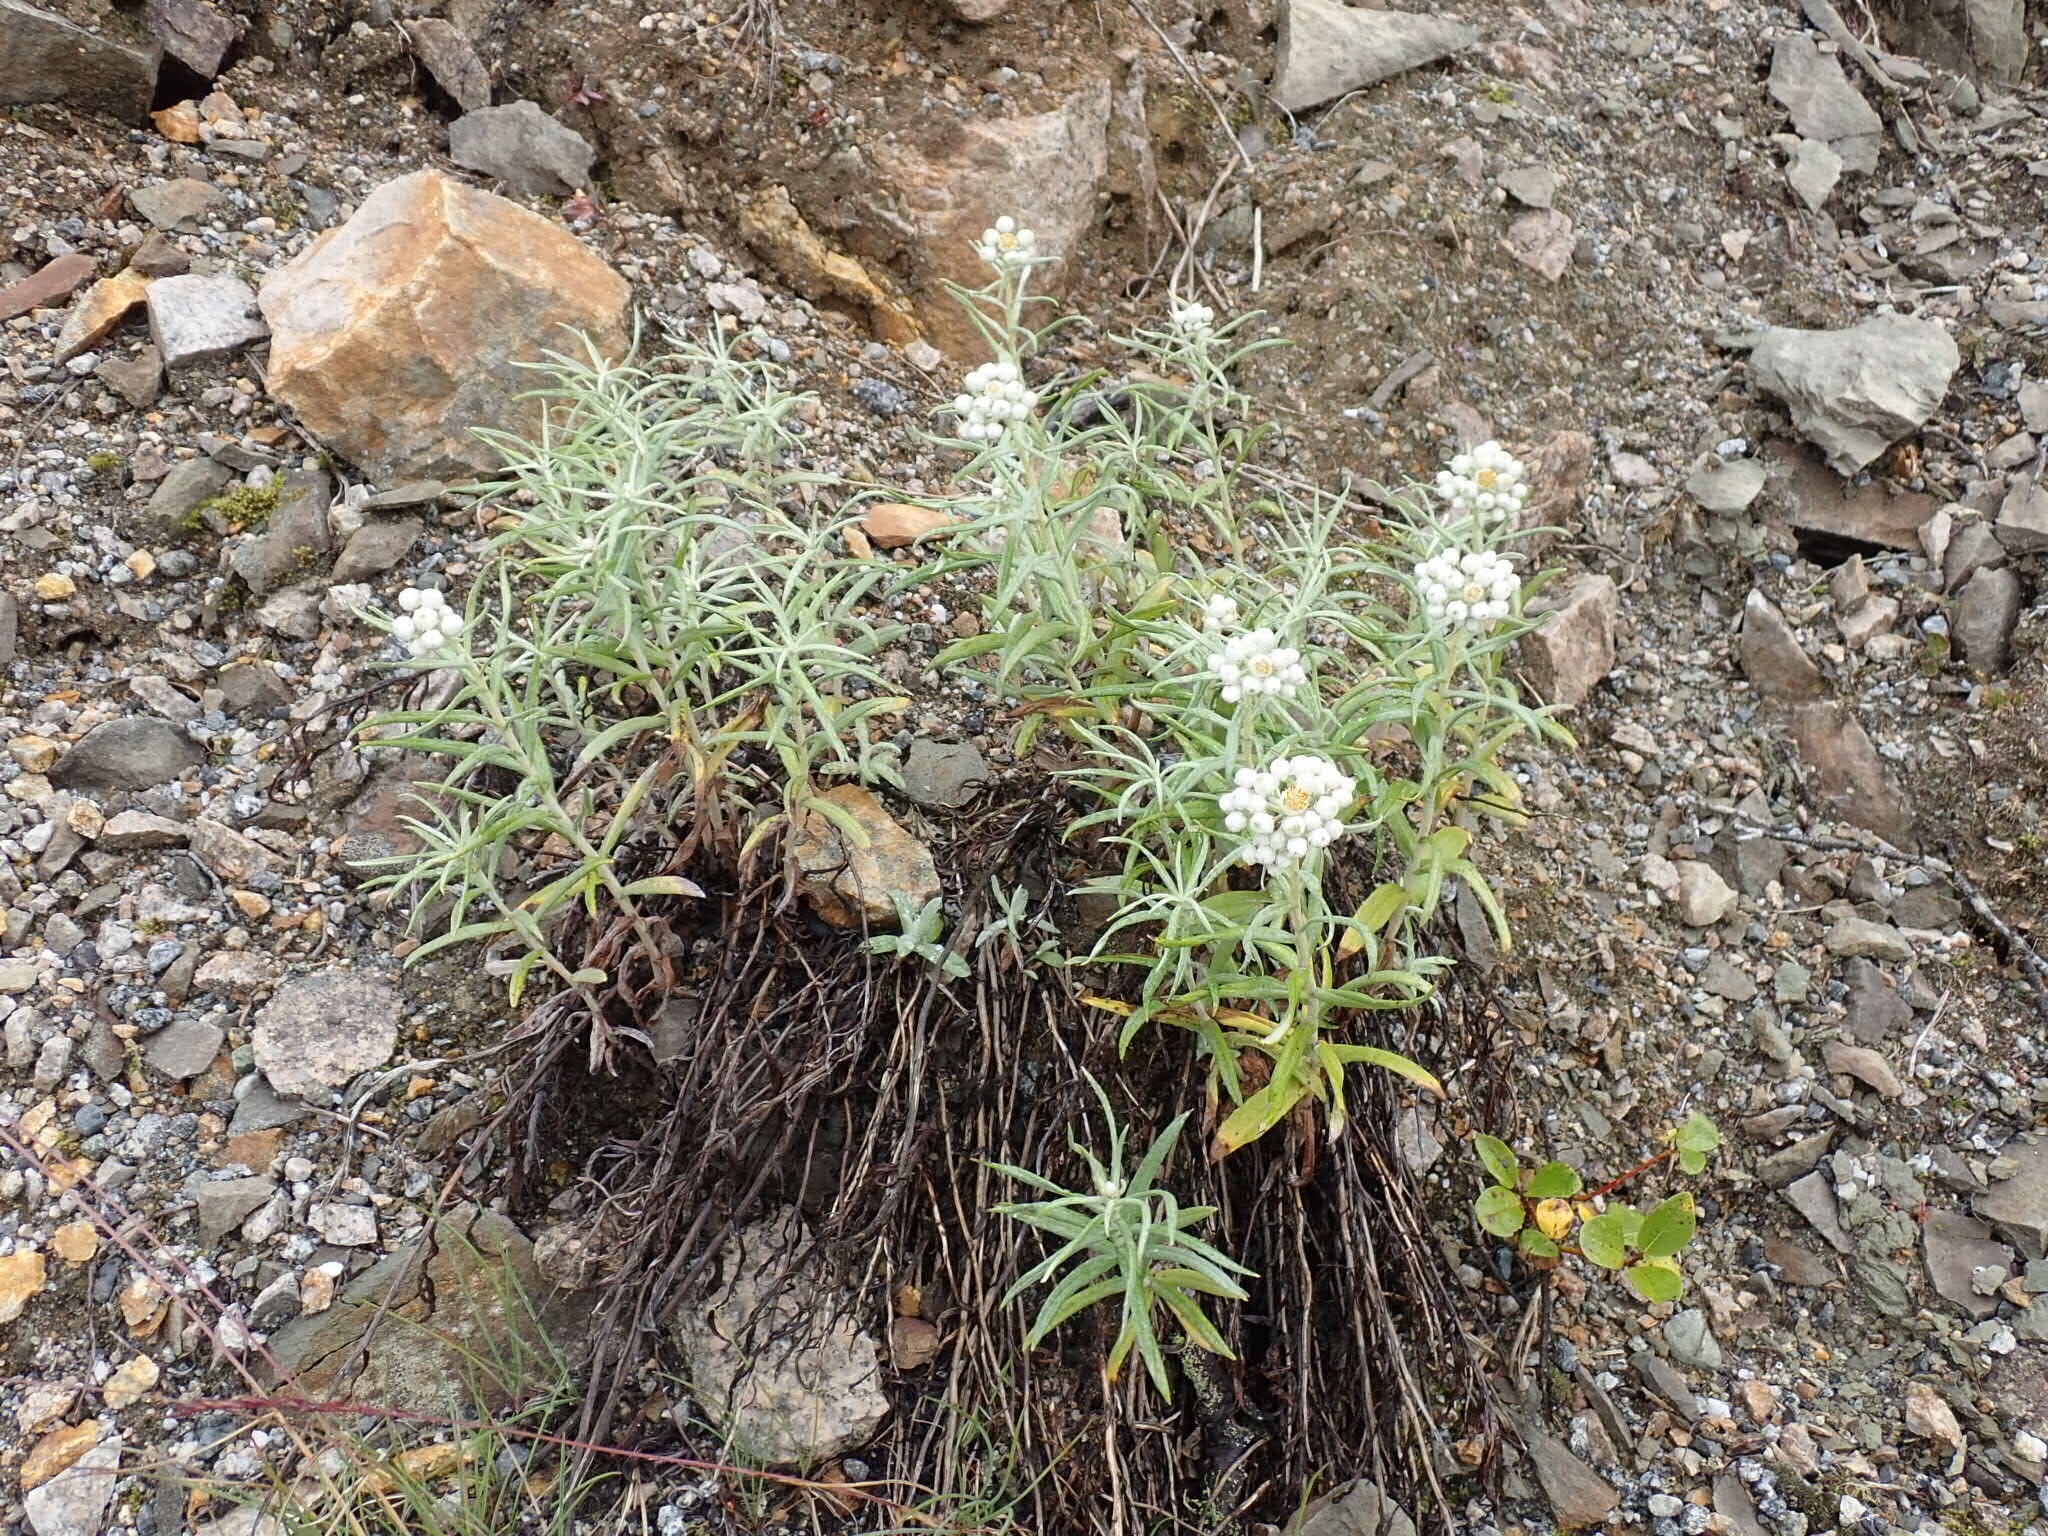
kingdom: Plantae
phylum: Tracheophyta
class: Magnoliopsida
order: Asterales
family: Asteraceae
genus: Anaphalis
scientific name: Anaphalis margaritacea
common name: Pearly everlasting
